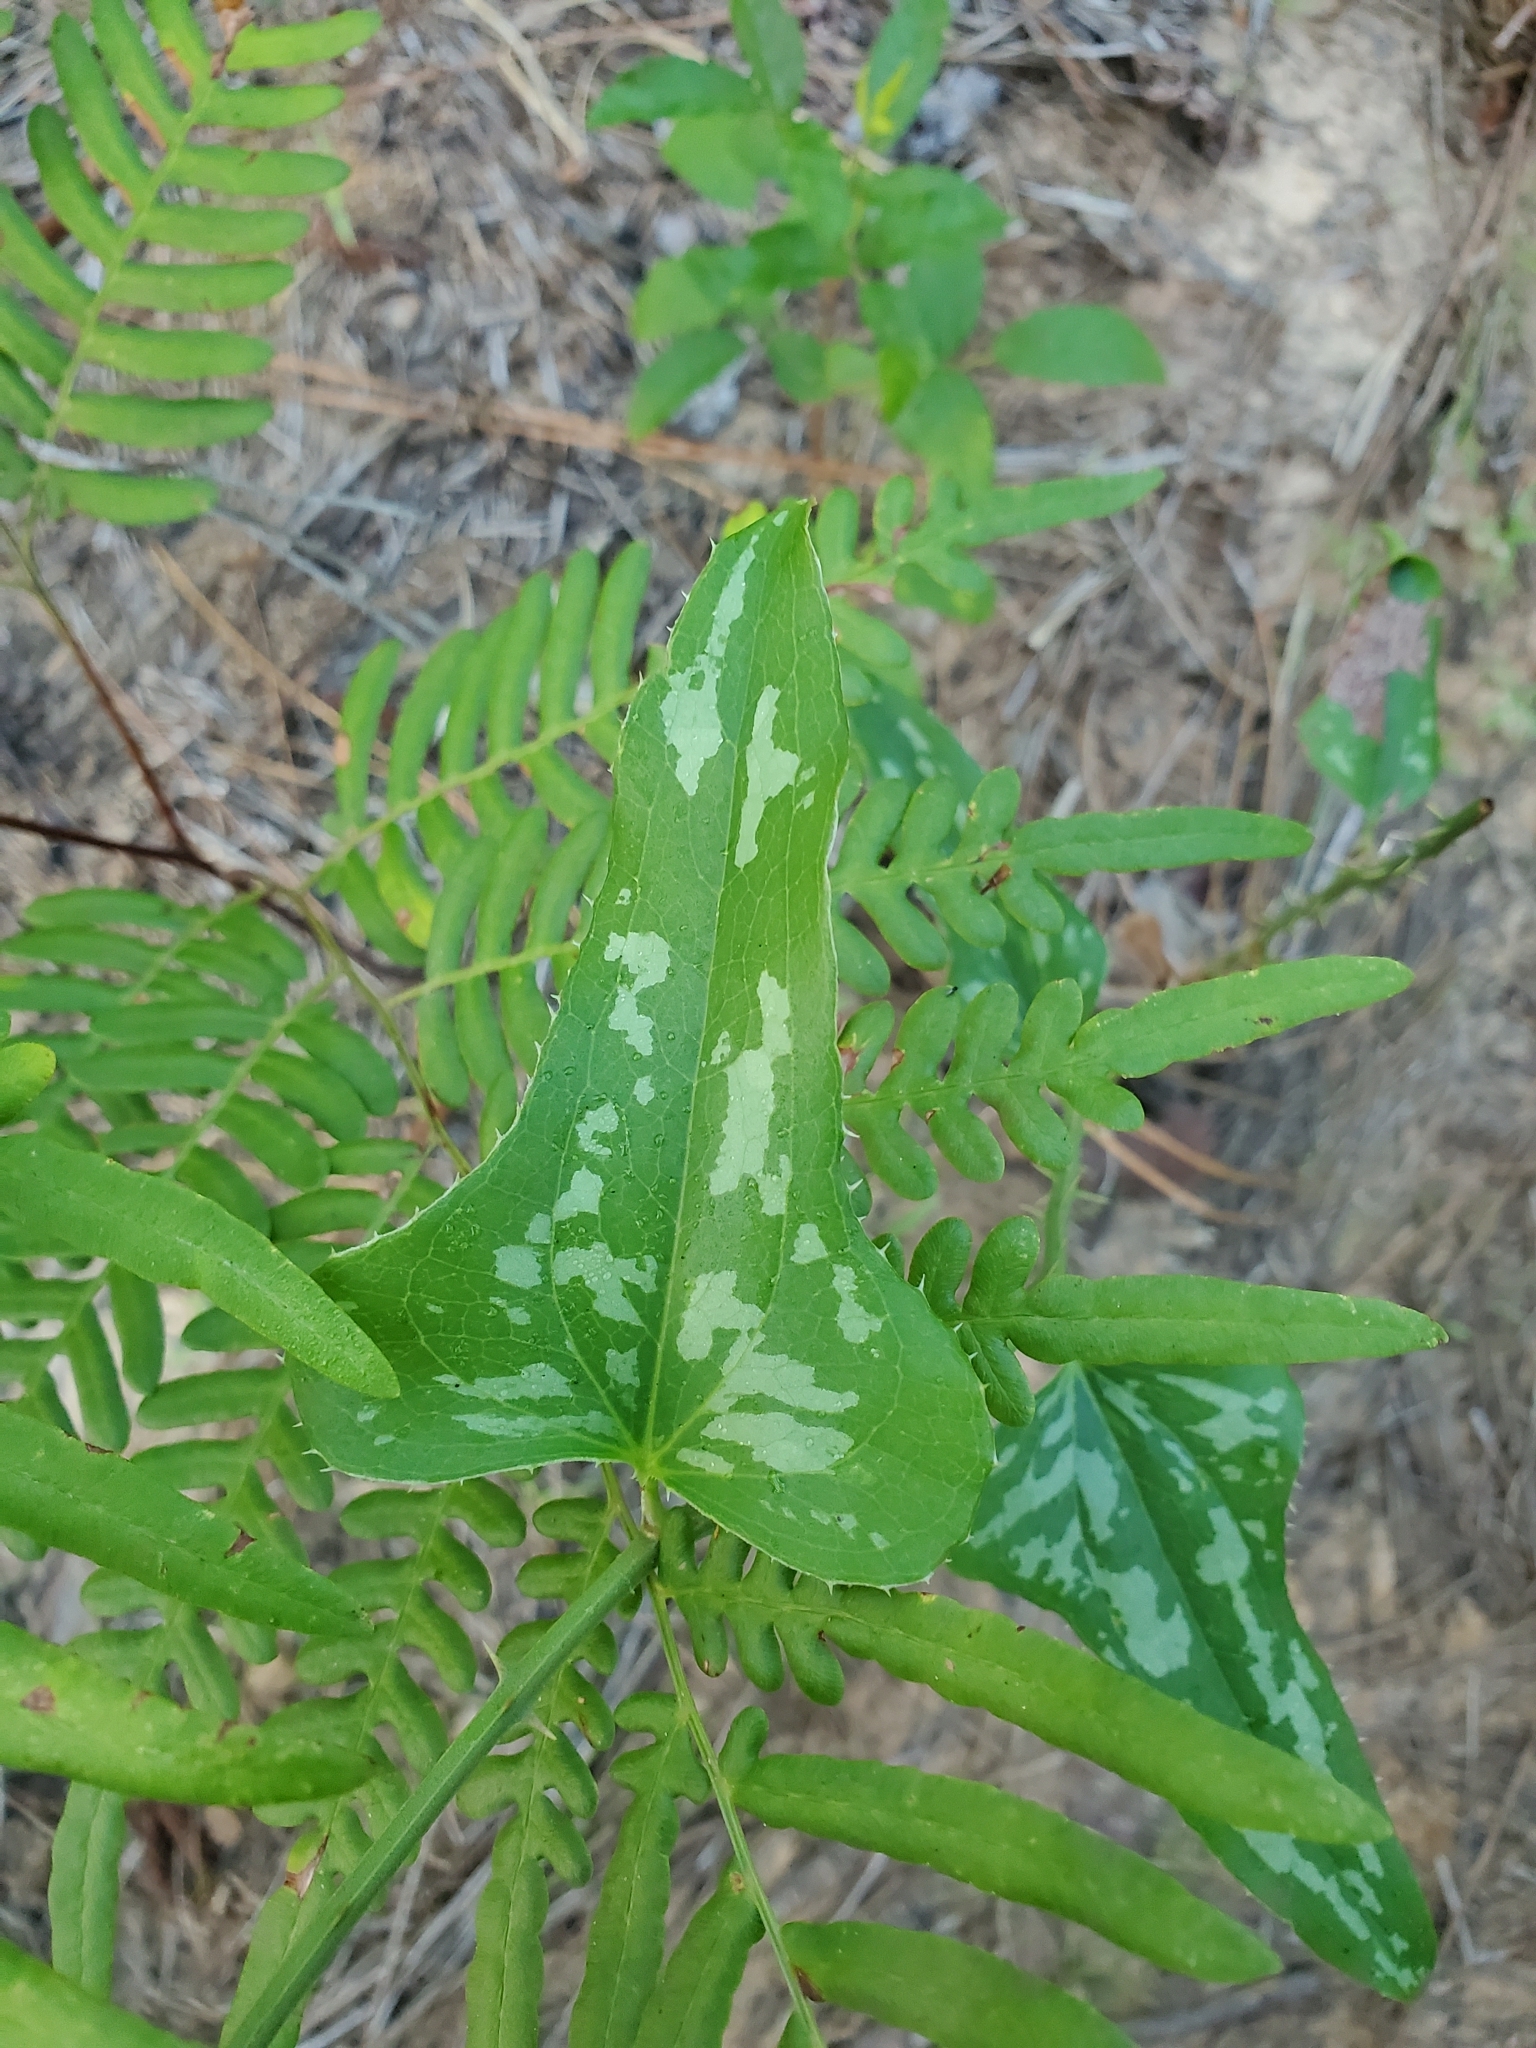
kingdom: Plantae
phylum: Tracheophyta
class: Liliopsida
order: Liliales
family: Smilacaceae
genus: Smilax
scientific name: Smilax bona-nox
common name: Catbrier
